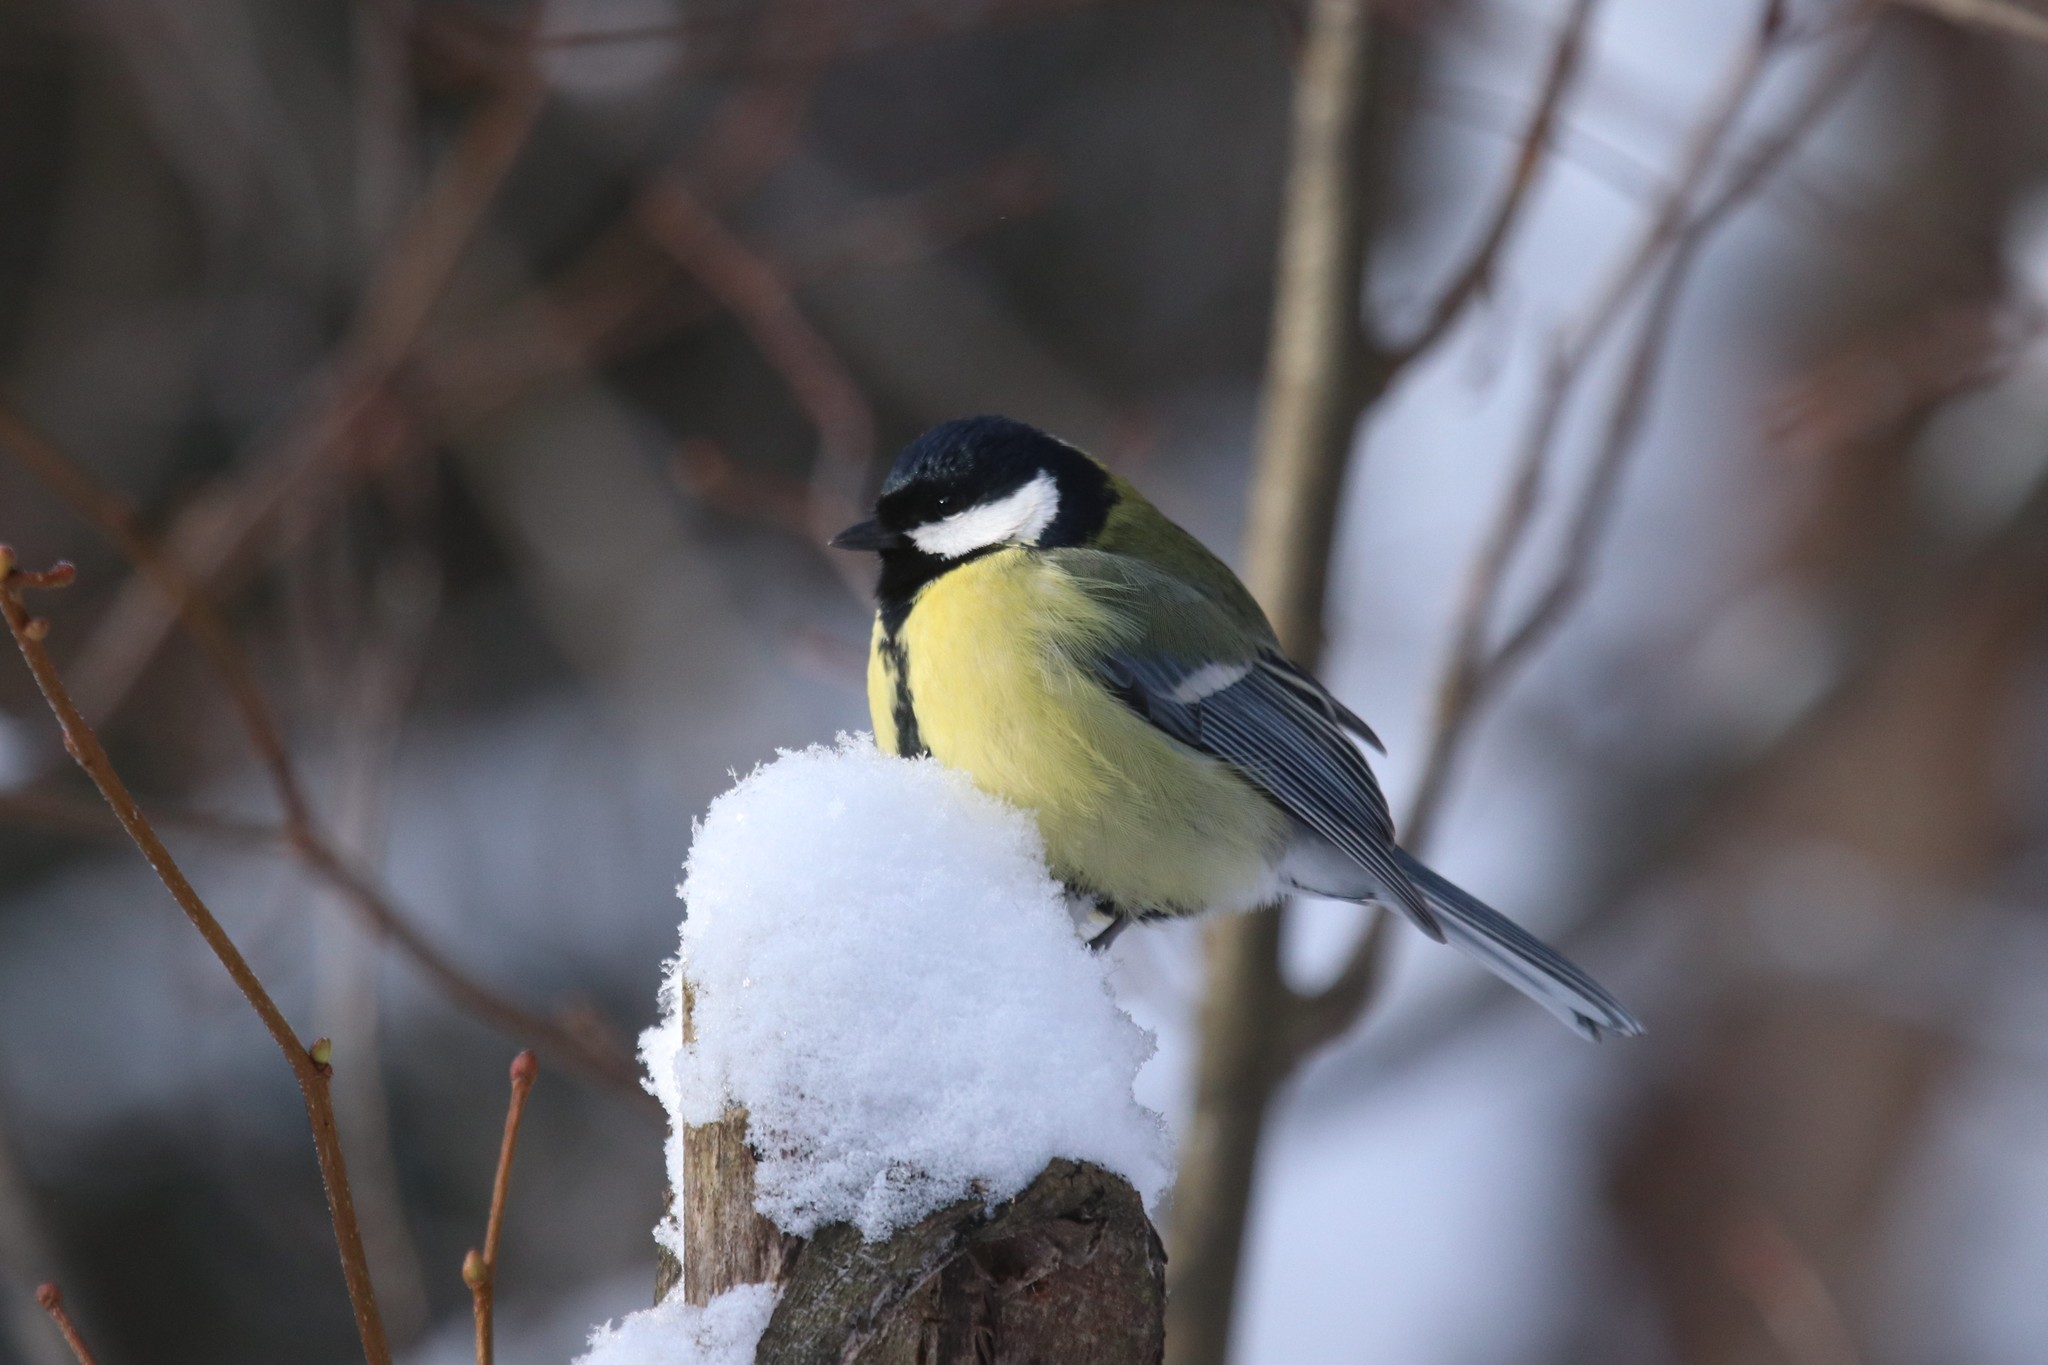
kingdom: Animalia
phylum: Chordata
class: Aves
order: Passeriformes
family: Paridae
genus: Parus
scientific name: Parus major
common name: Great tit
